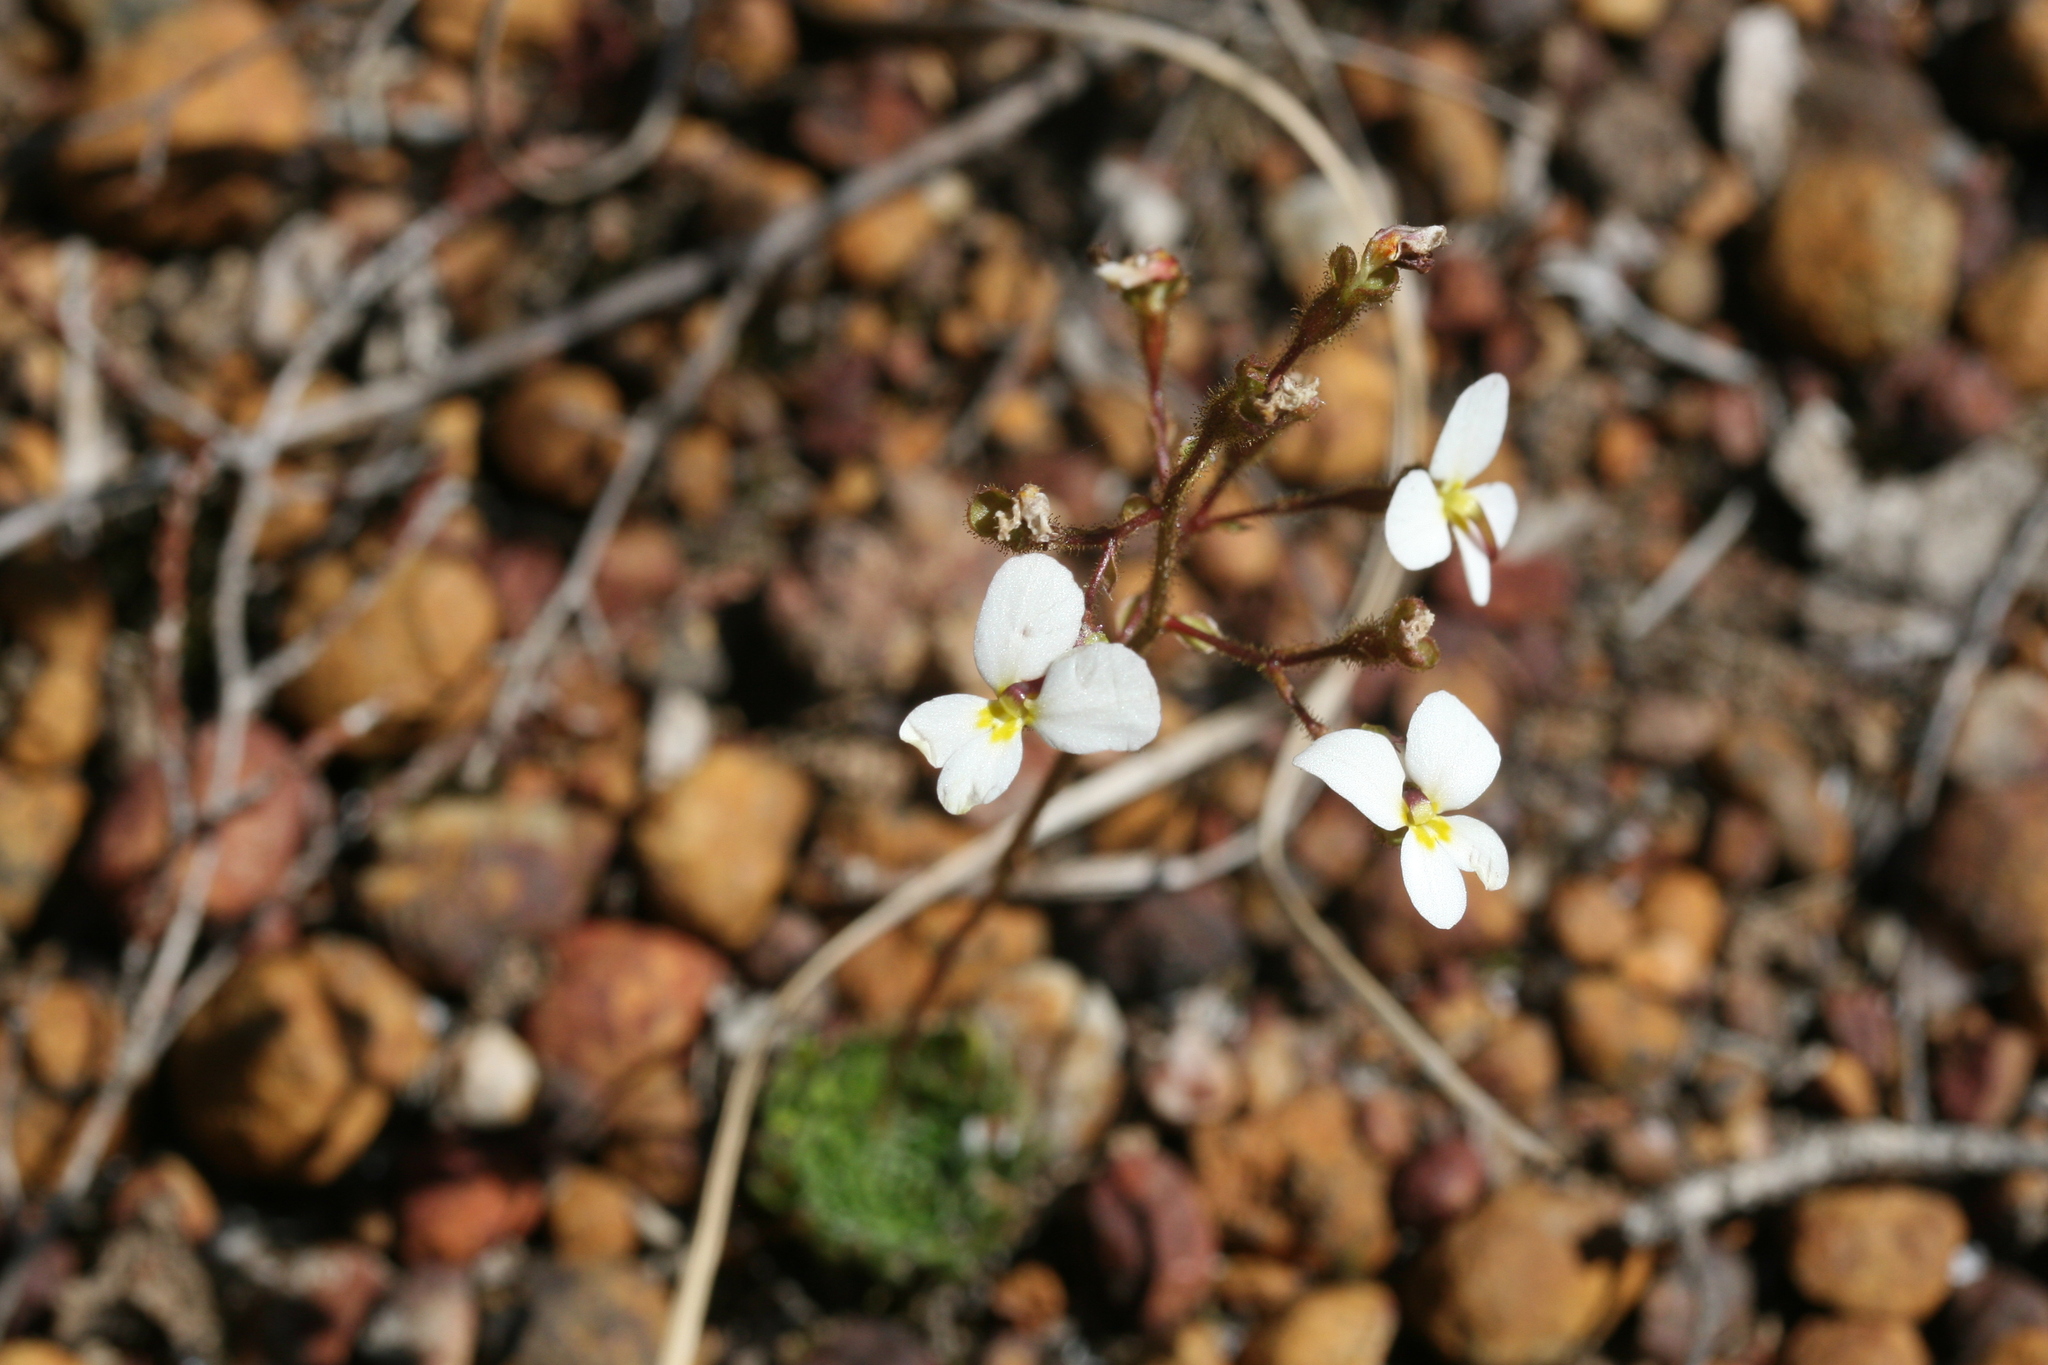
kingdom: Plantae
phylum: Tracheophyta
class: Magnoliopsida
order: Asterales
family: Stylidiaceae
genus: Stylidium
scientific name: Stylidium piliferum
